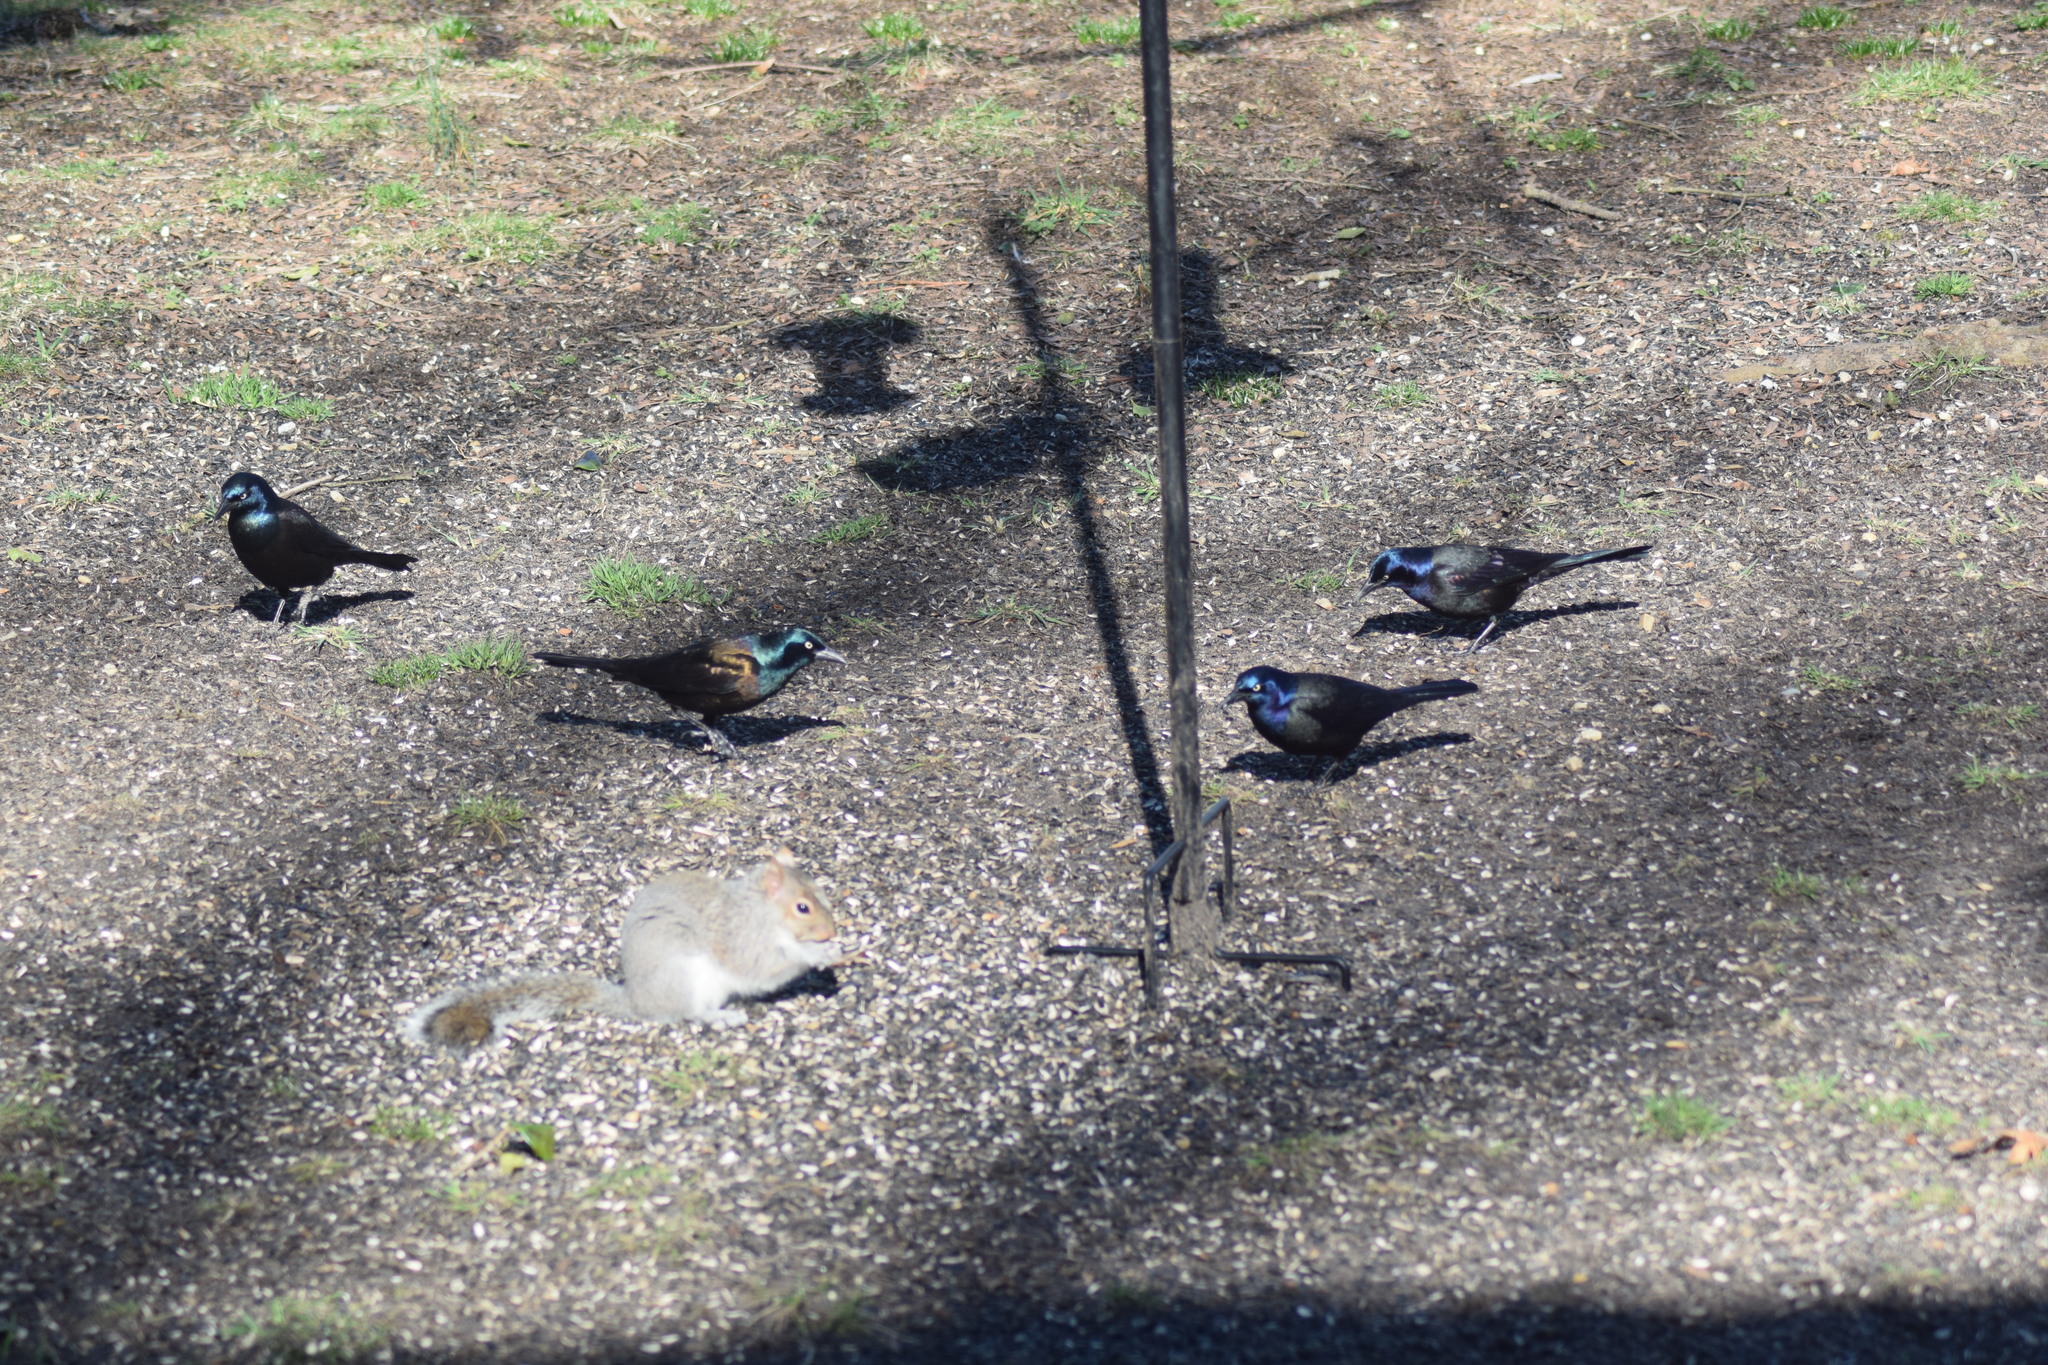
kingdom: Animalia
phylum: Chordata
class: Aves
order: Passeriformes
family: Icteridae
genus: Quiscalus
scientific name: Quiscalus quiscula
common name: Common grackle
